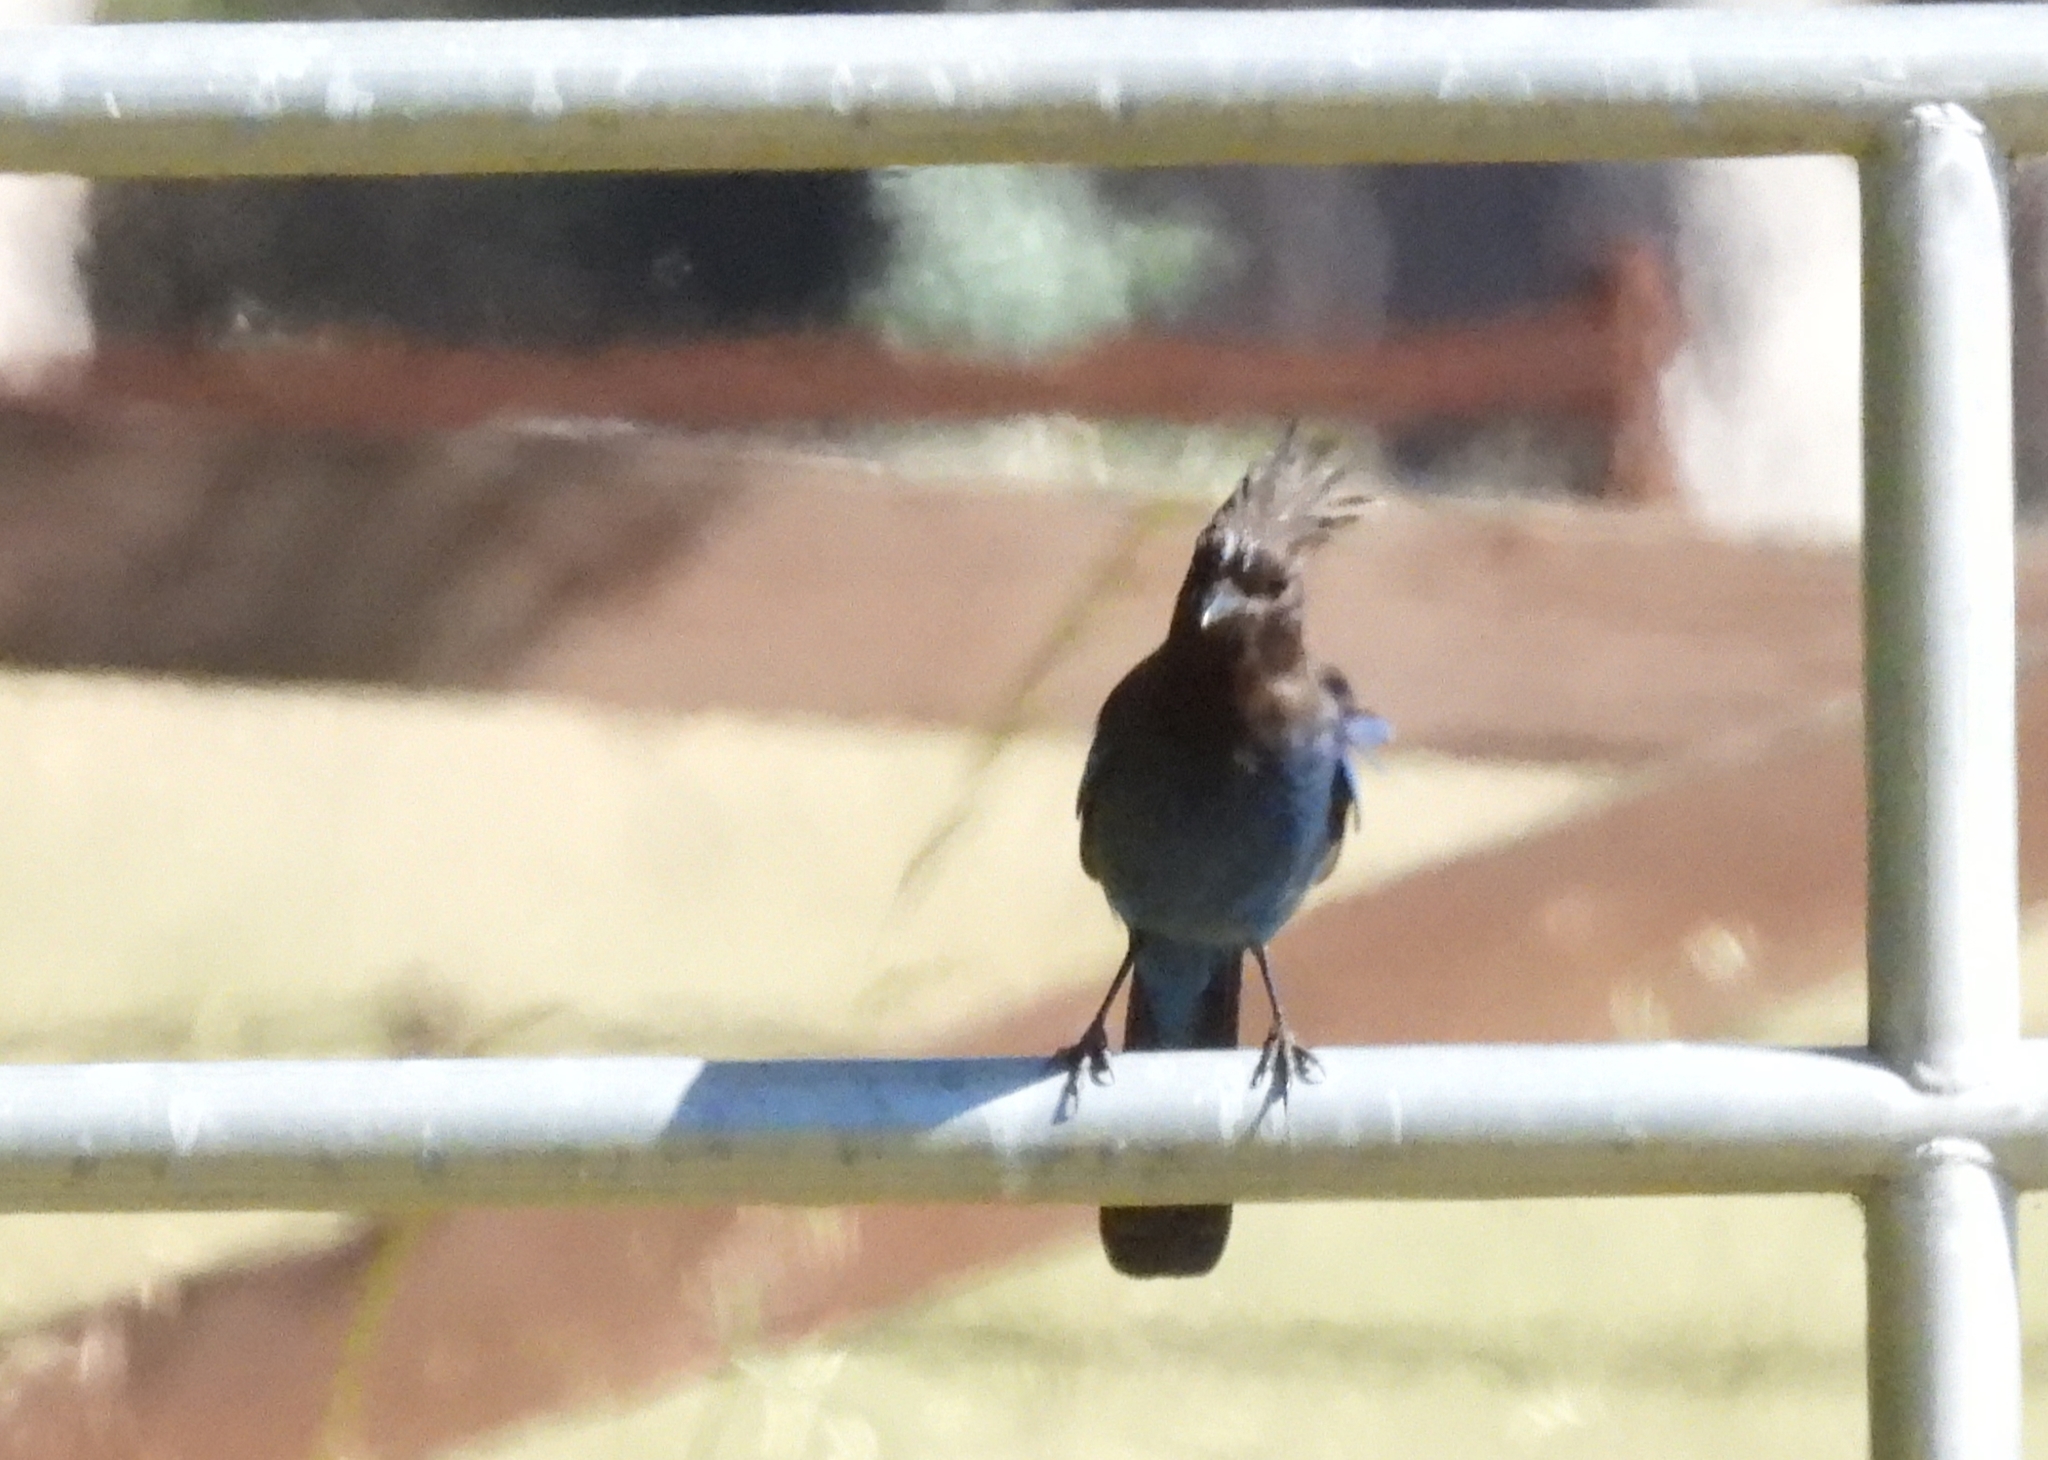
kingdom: Animalia
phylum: Chordata
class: Aves
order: Passeriformes
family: Corvidae
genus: Cyanocitta
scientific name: Cyanocitta stelleri
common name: Steller's jay
